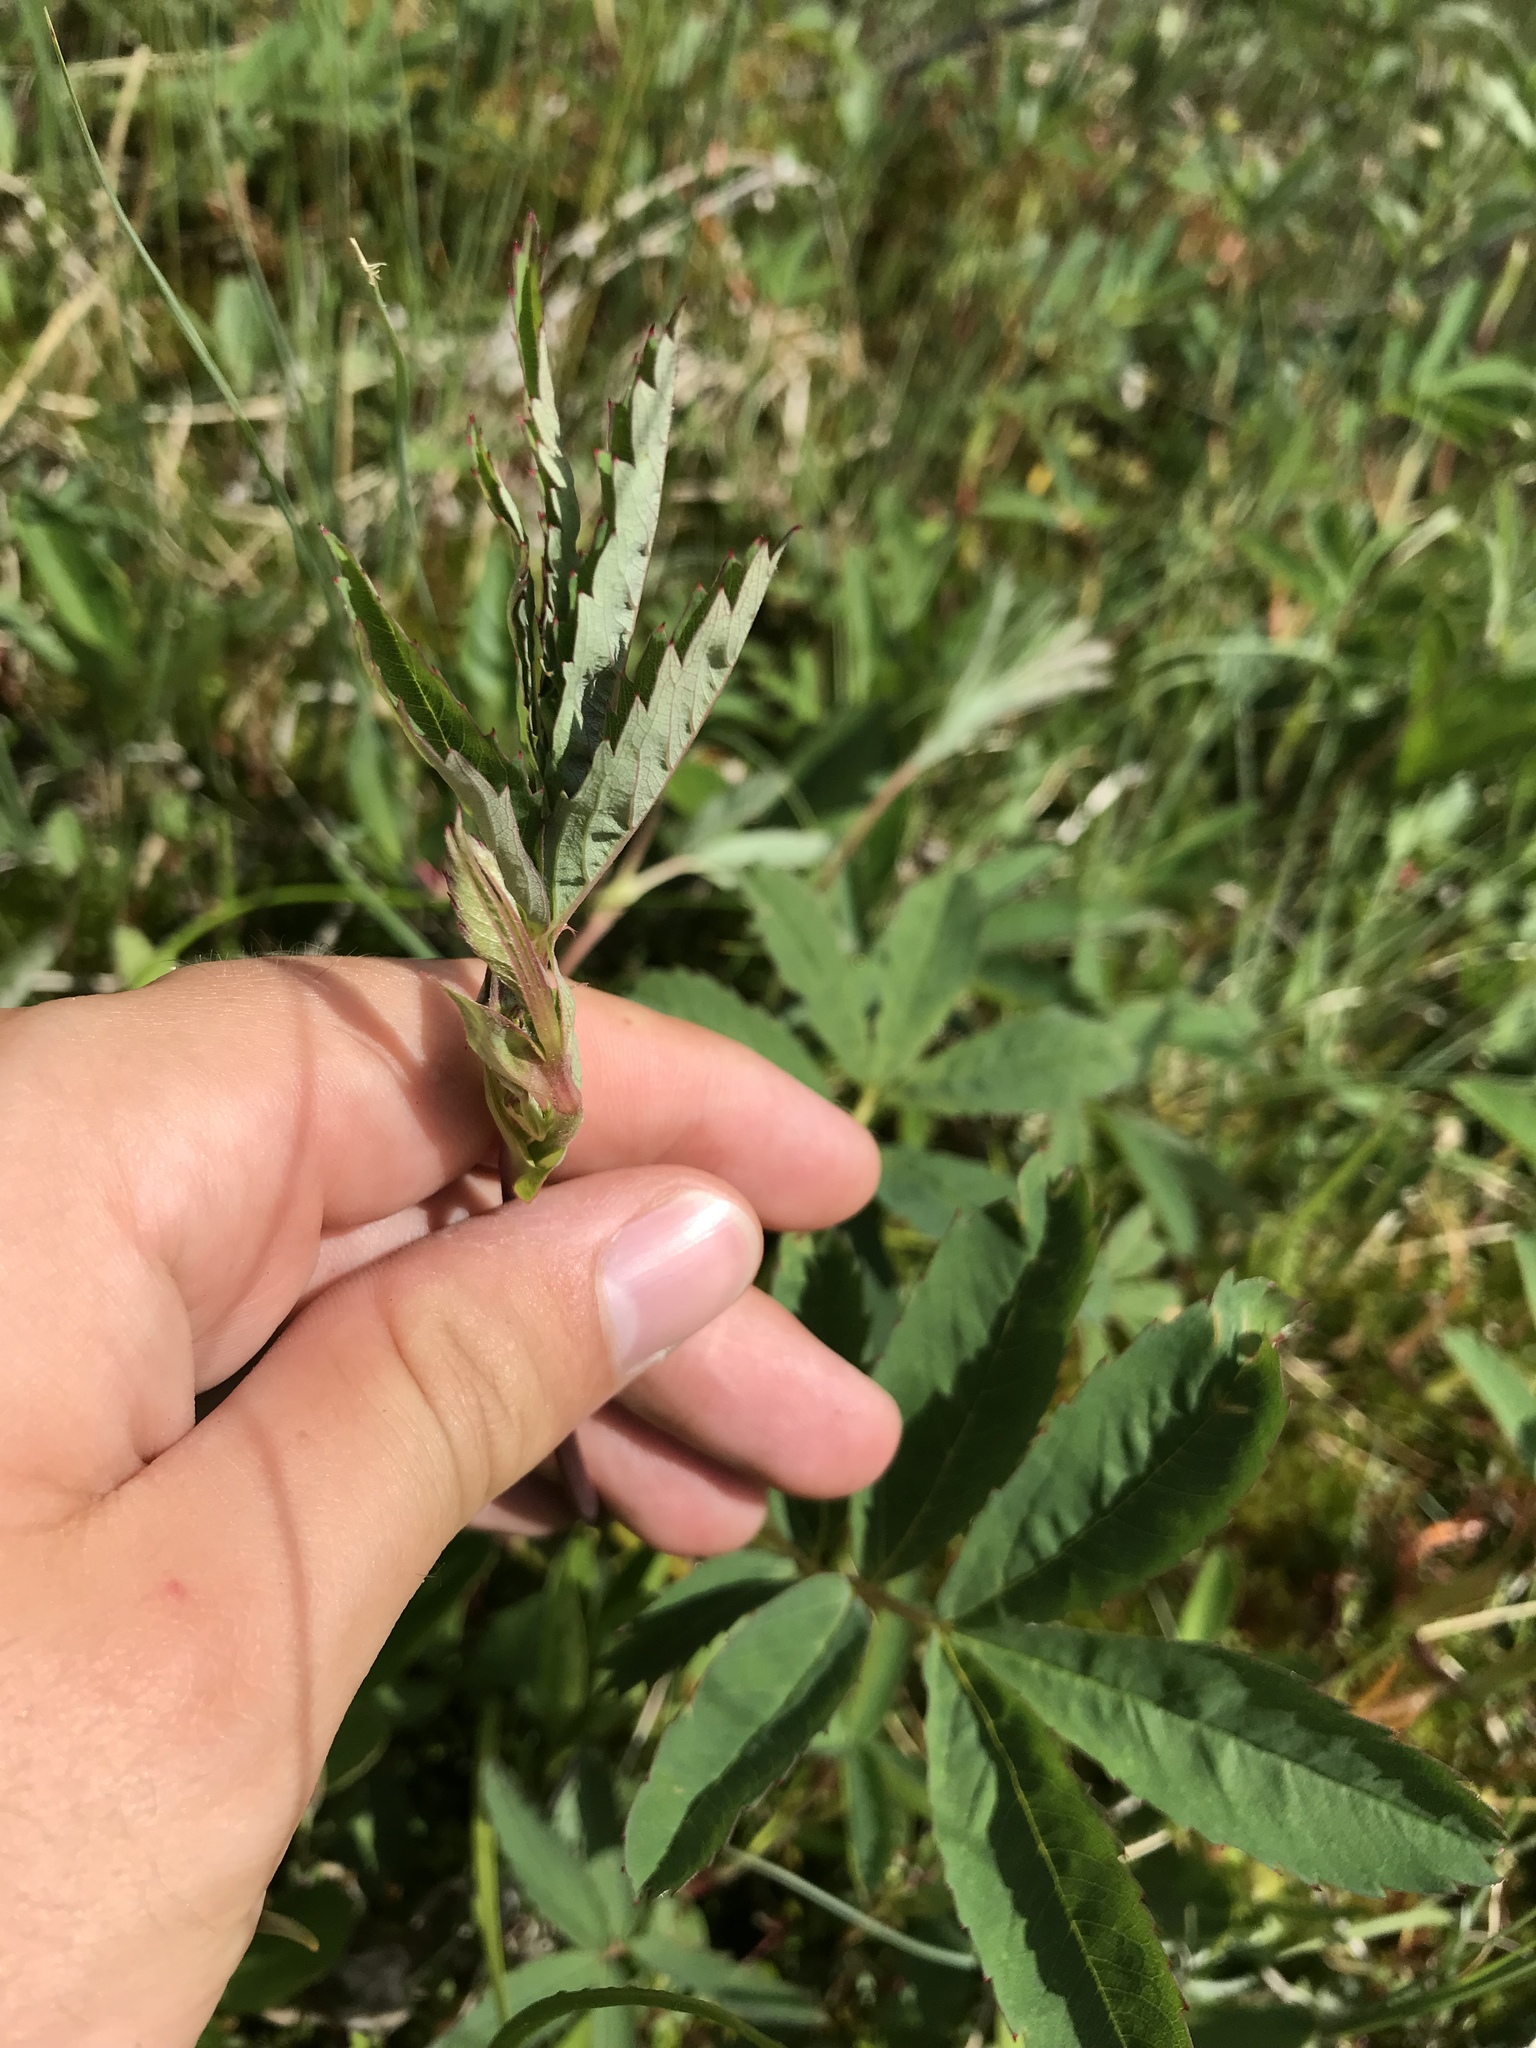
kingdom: Plantae
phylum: Tracheophyta
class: Magnoliopsida
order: Rosales
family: Rosaceae
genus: Comarum
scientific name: Comarum palustre
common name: Marsh cinquefoil
